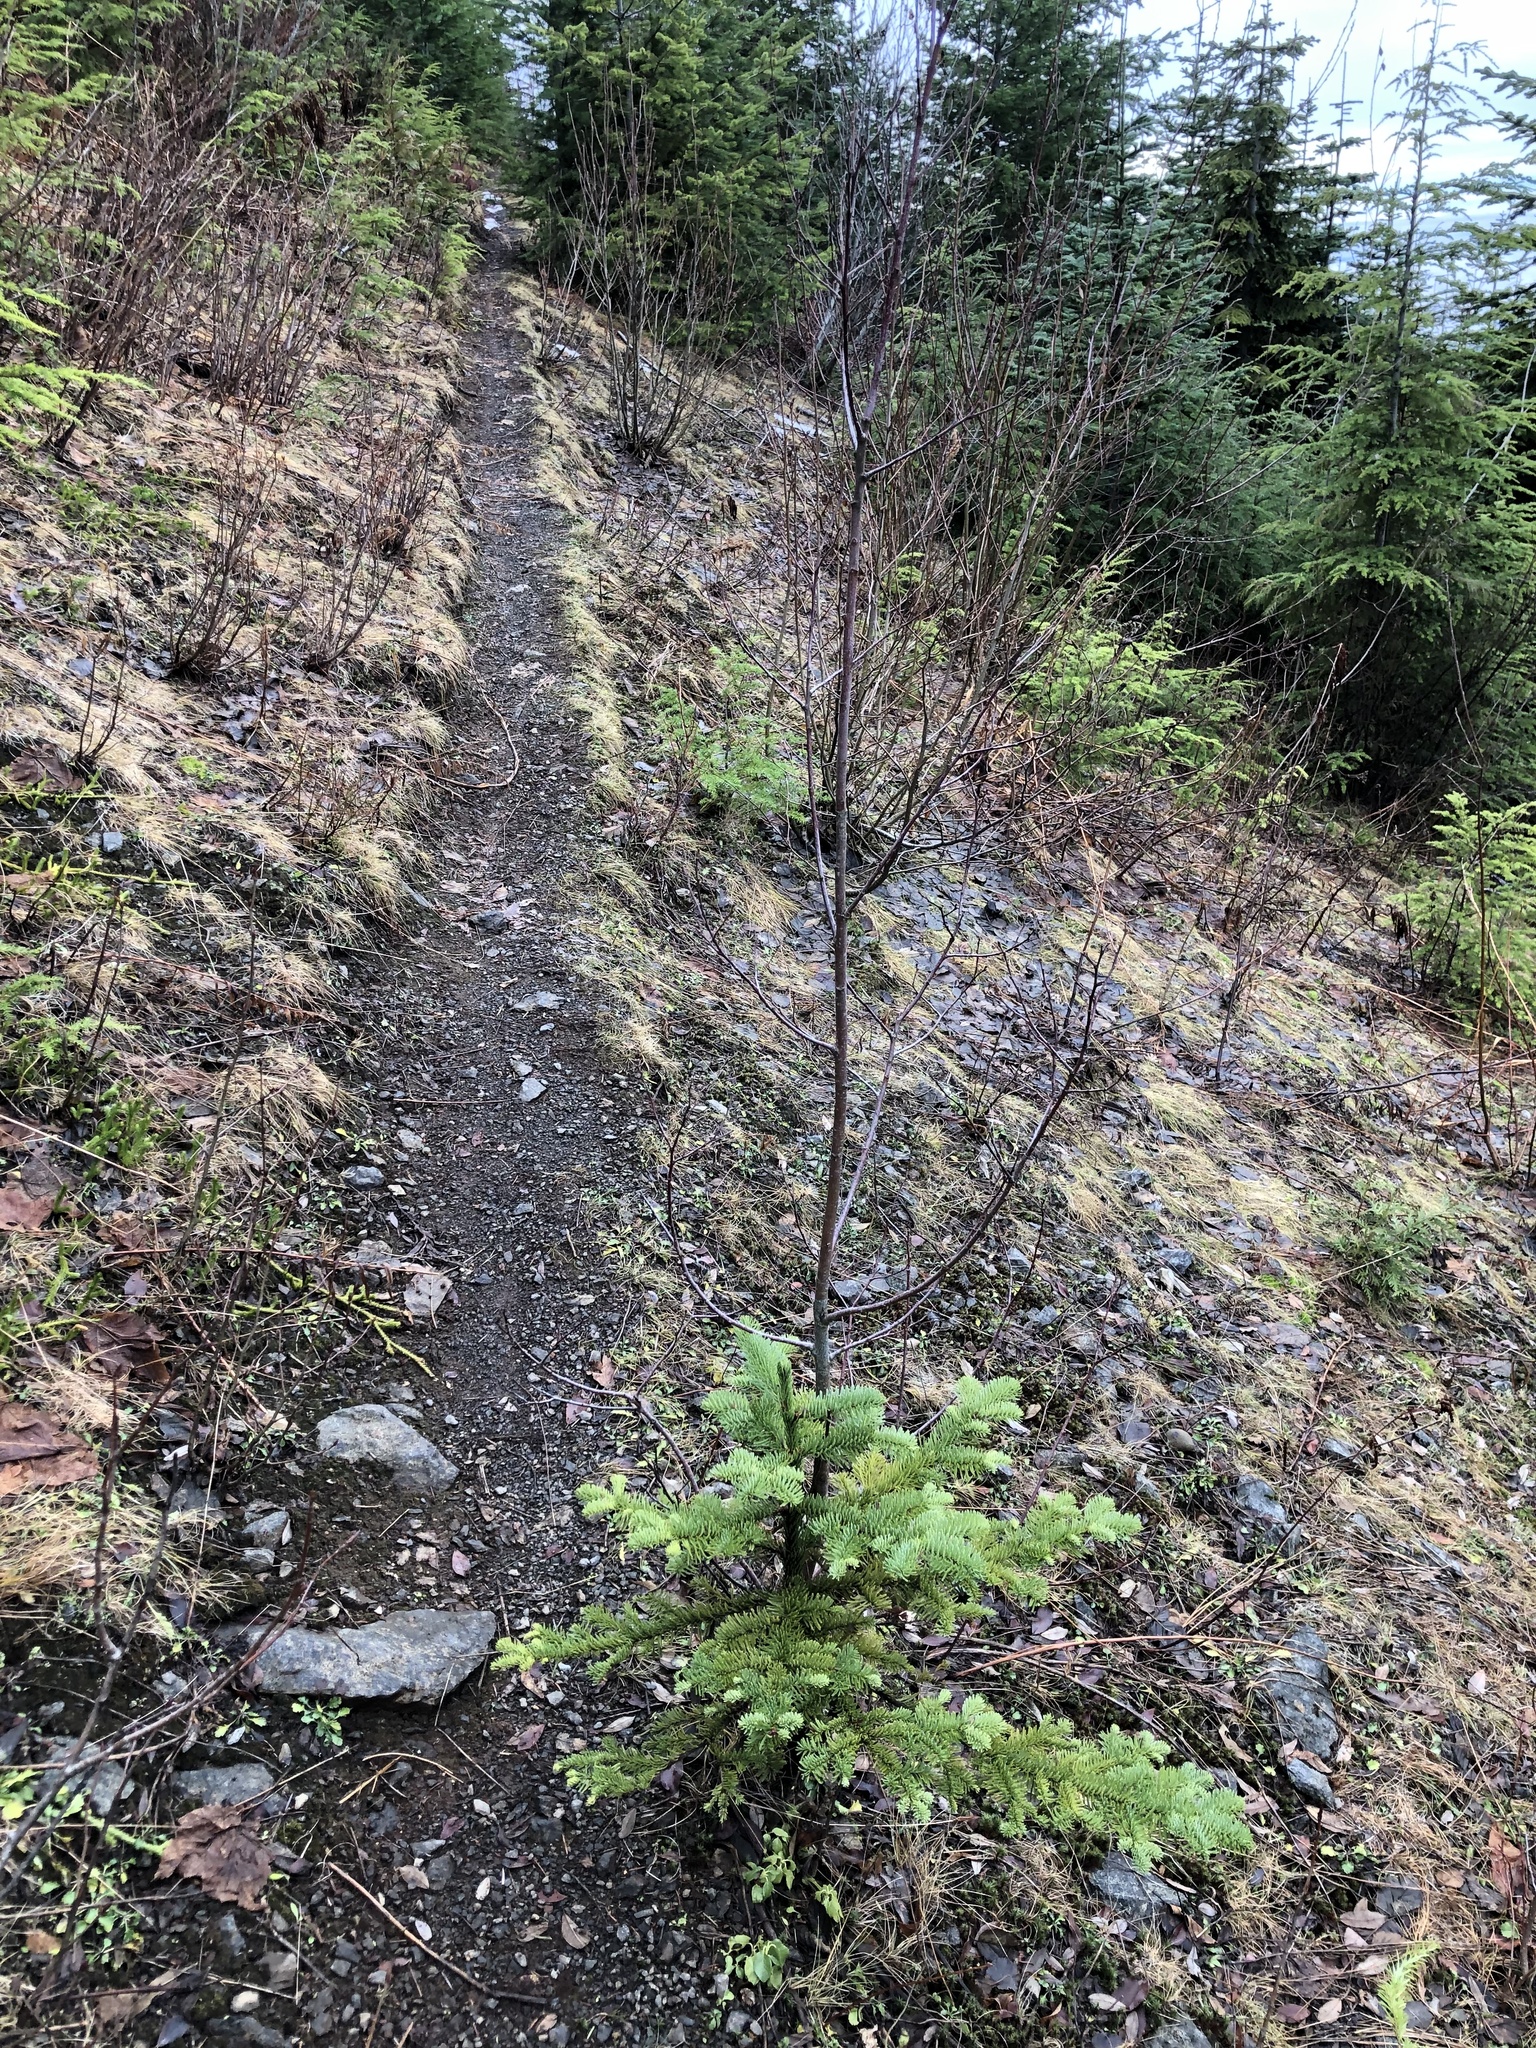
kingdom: Plantae
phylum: Tracheophyta
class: Pinopsida
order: Pinales
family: Pinaceae
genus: Abies
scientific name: Abies procera
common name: Noble fir
